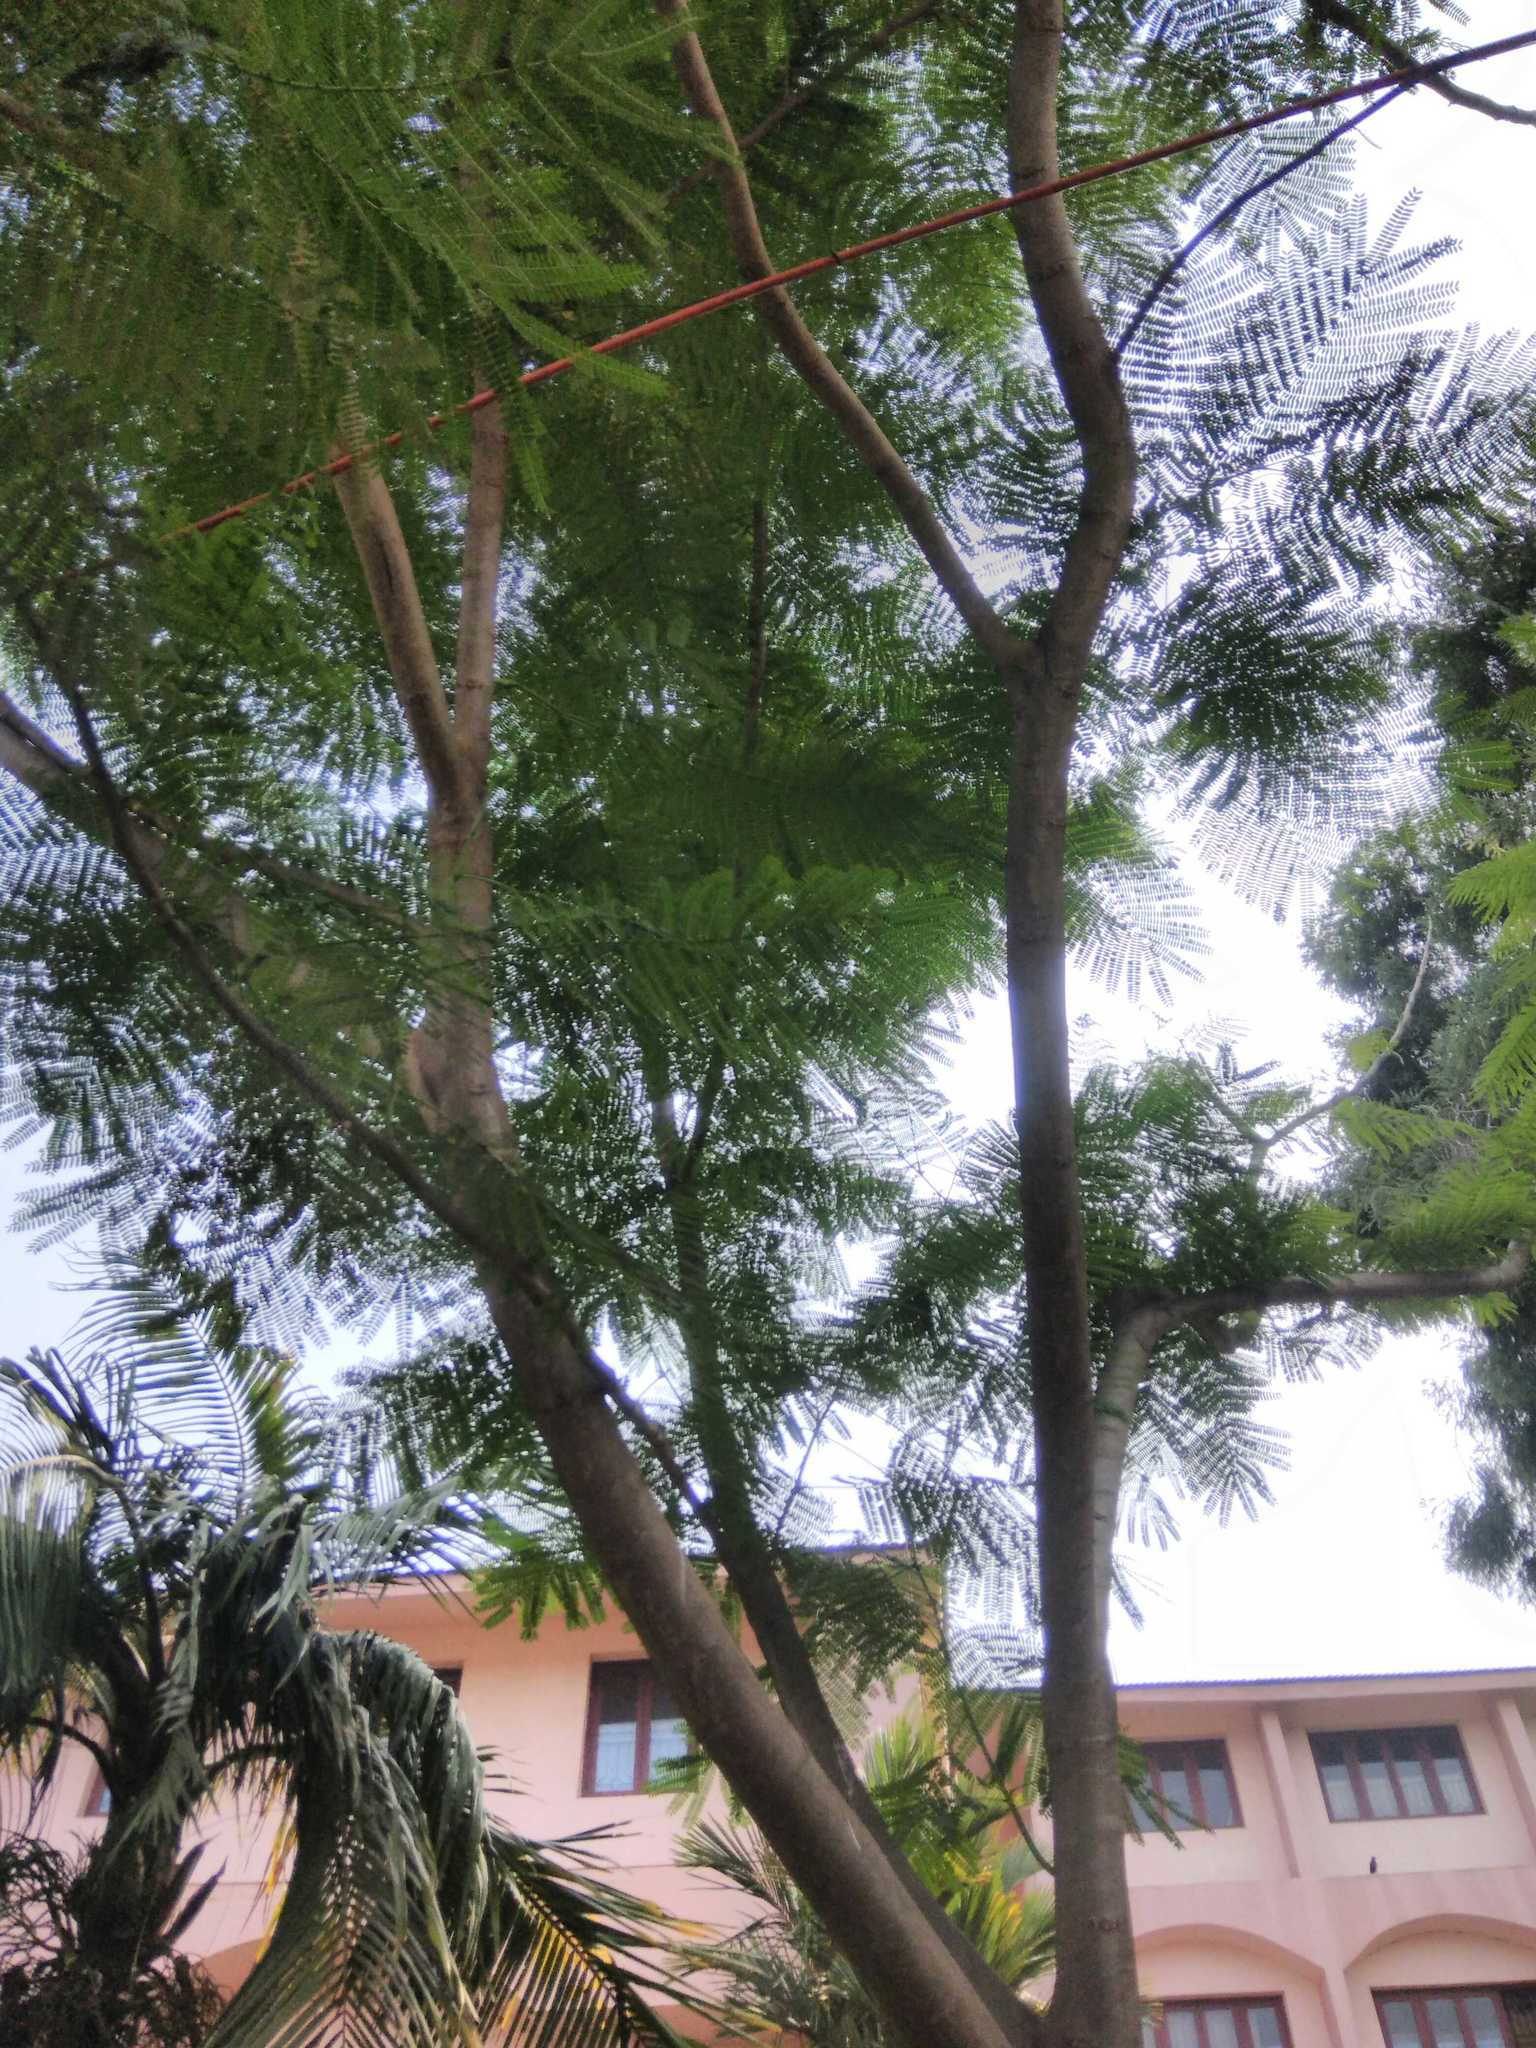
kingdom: Plantae
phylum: Tracheophyta
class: Magnoliopsida
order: Fabales
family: Fabaceae
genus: Delonix
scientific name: Delonix regia
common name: Royal poinciana
